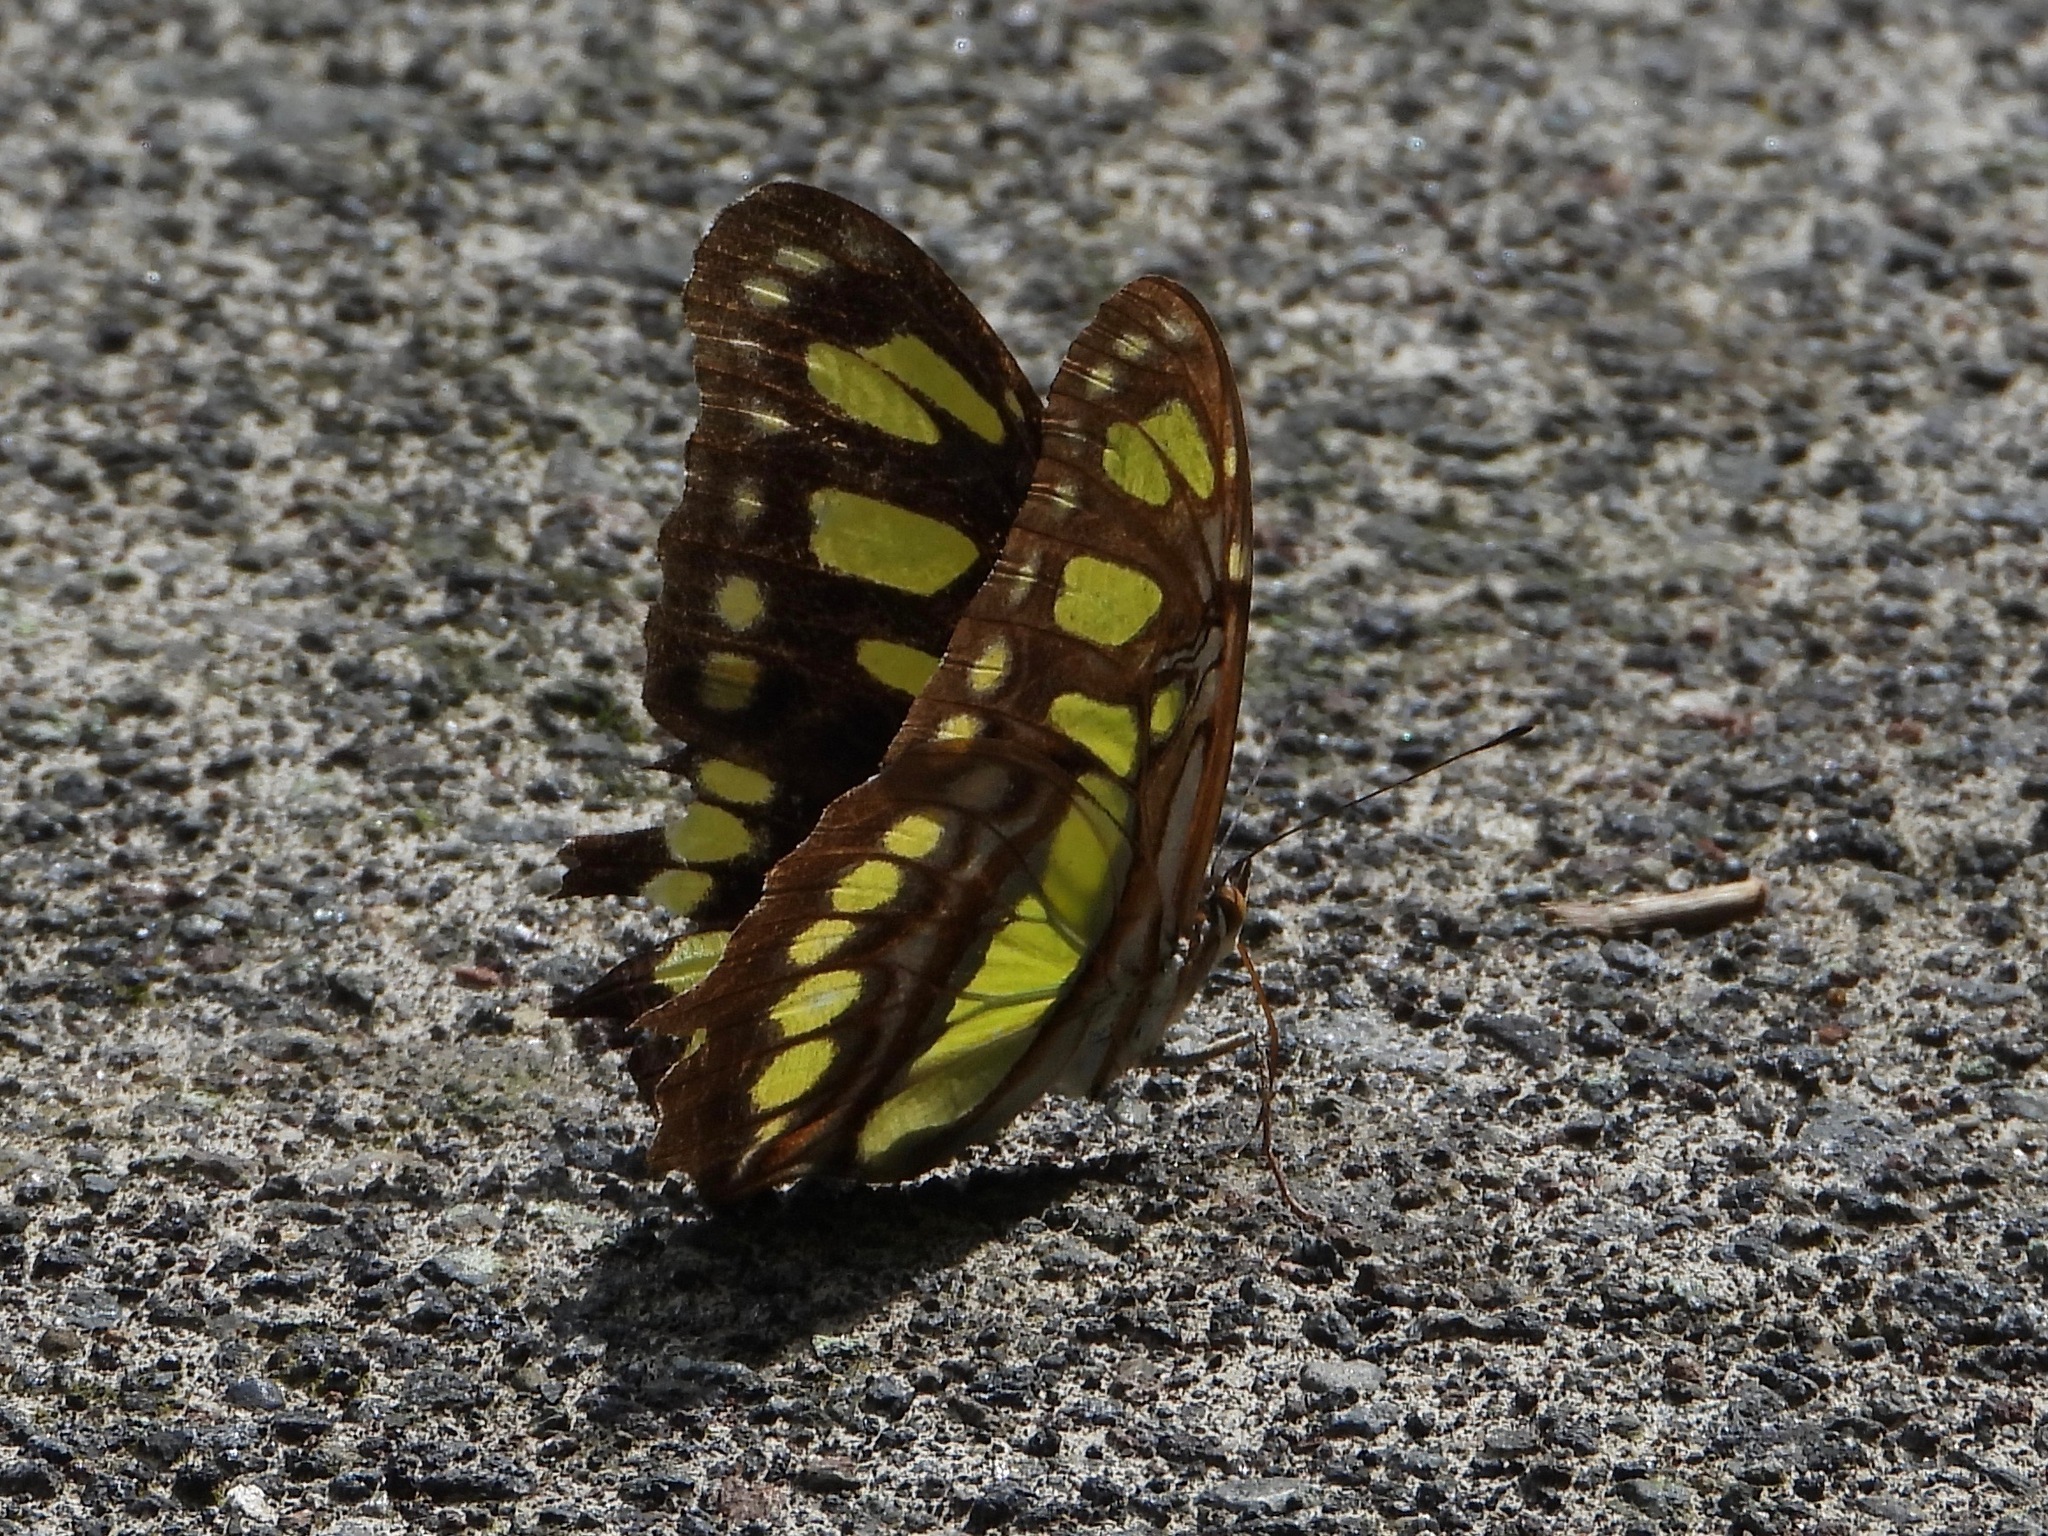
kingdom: Animalia
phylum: Arthropoda
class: Insecta
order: Lepidoptera
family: Nymphalidae
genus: Siproeta
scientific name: Siproeta stelenes
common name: Malachite
